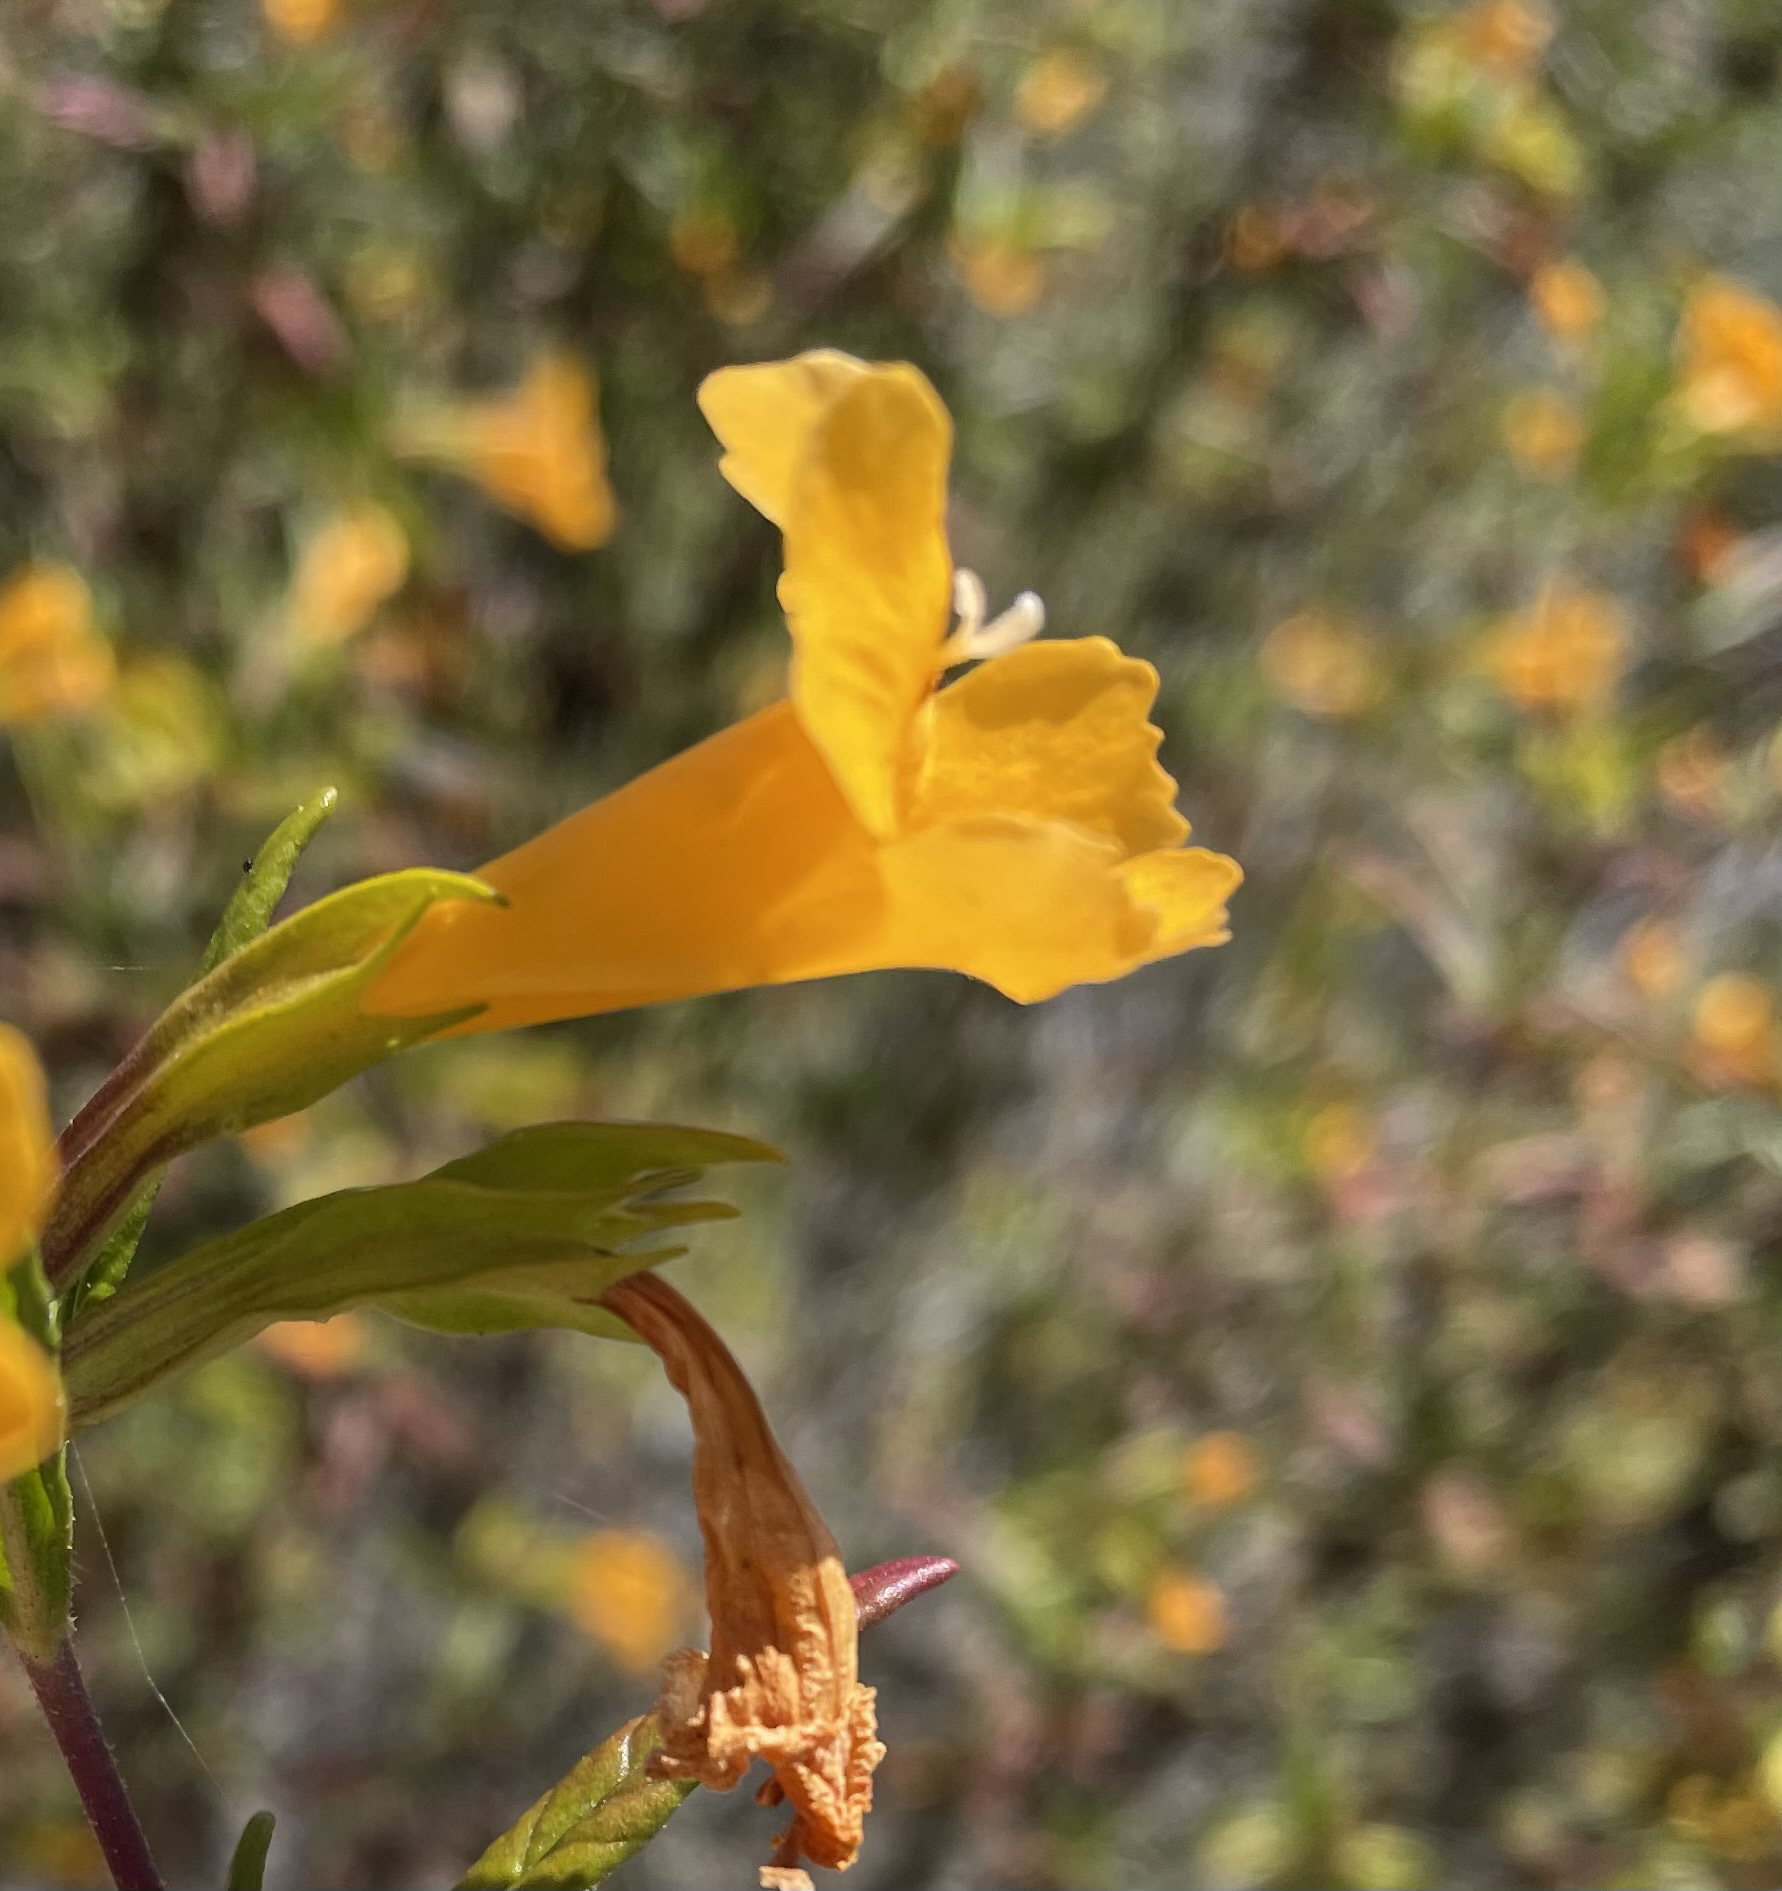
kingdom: Plantae
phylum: Tracheophyta
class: Magnoliopsida
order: Lamiales
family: Phrymaceae
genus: Diplacus
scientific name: Diplacus aurantiacus
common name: Bush monkey-flower
